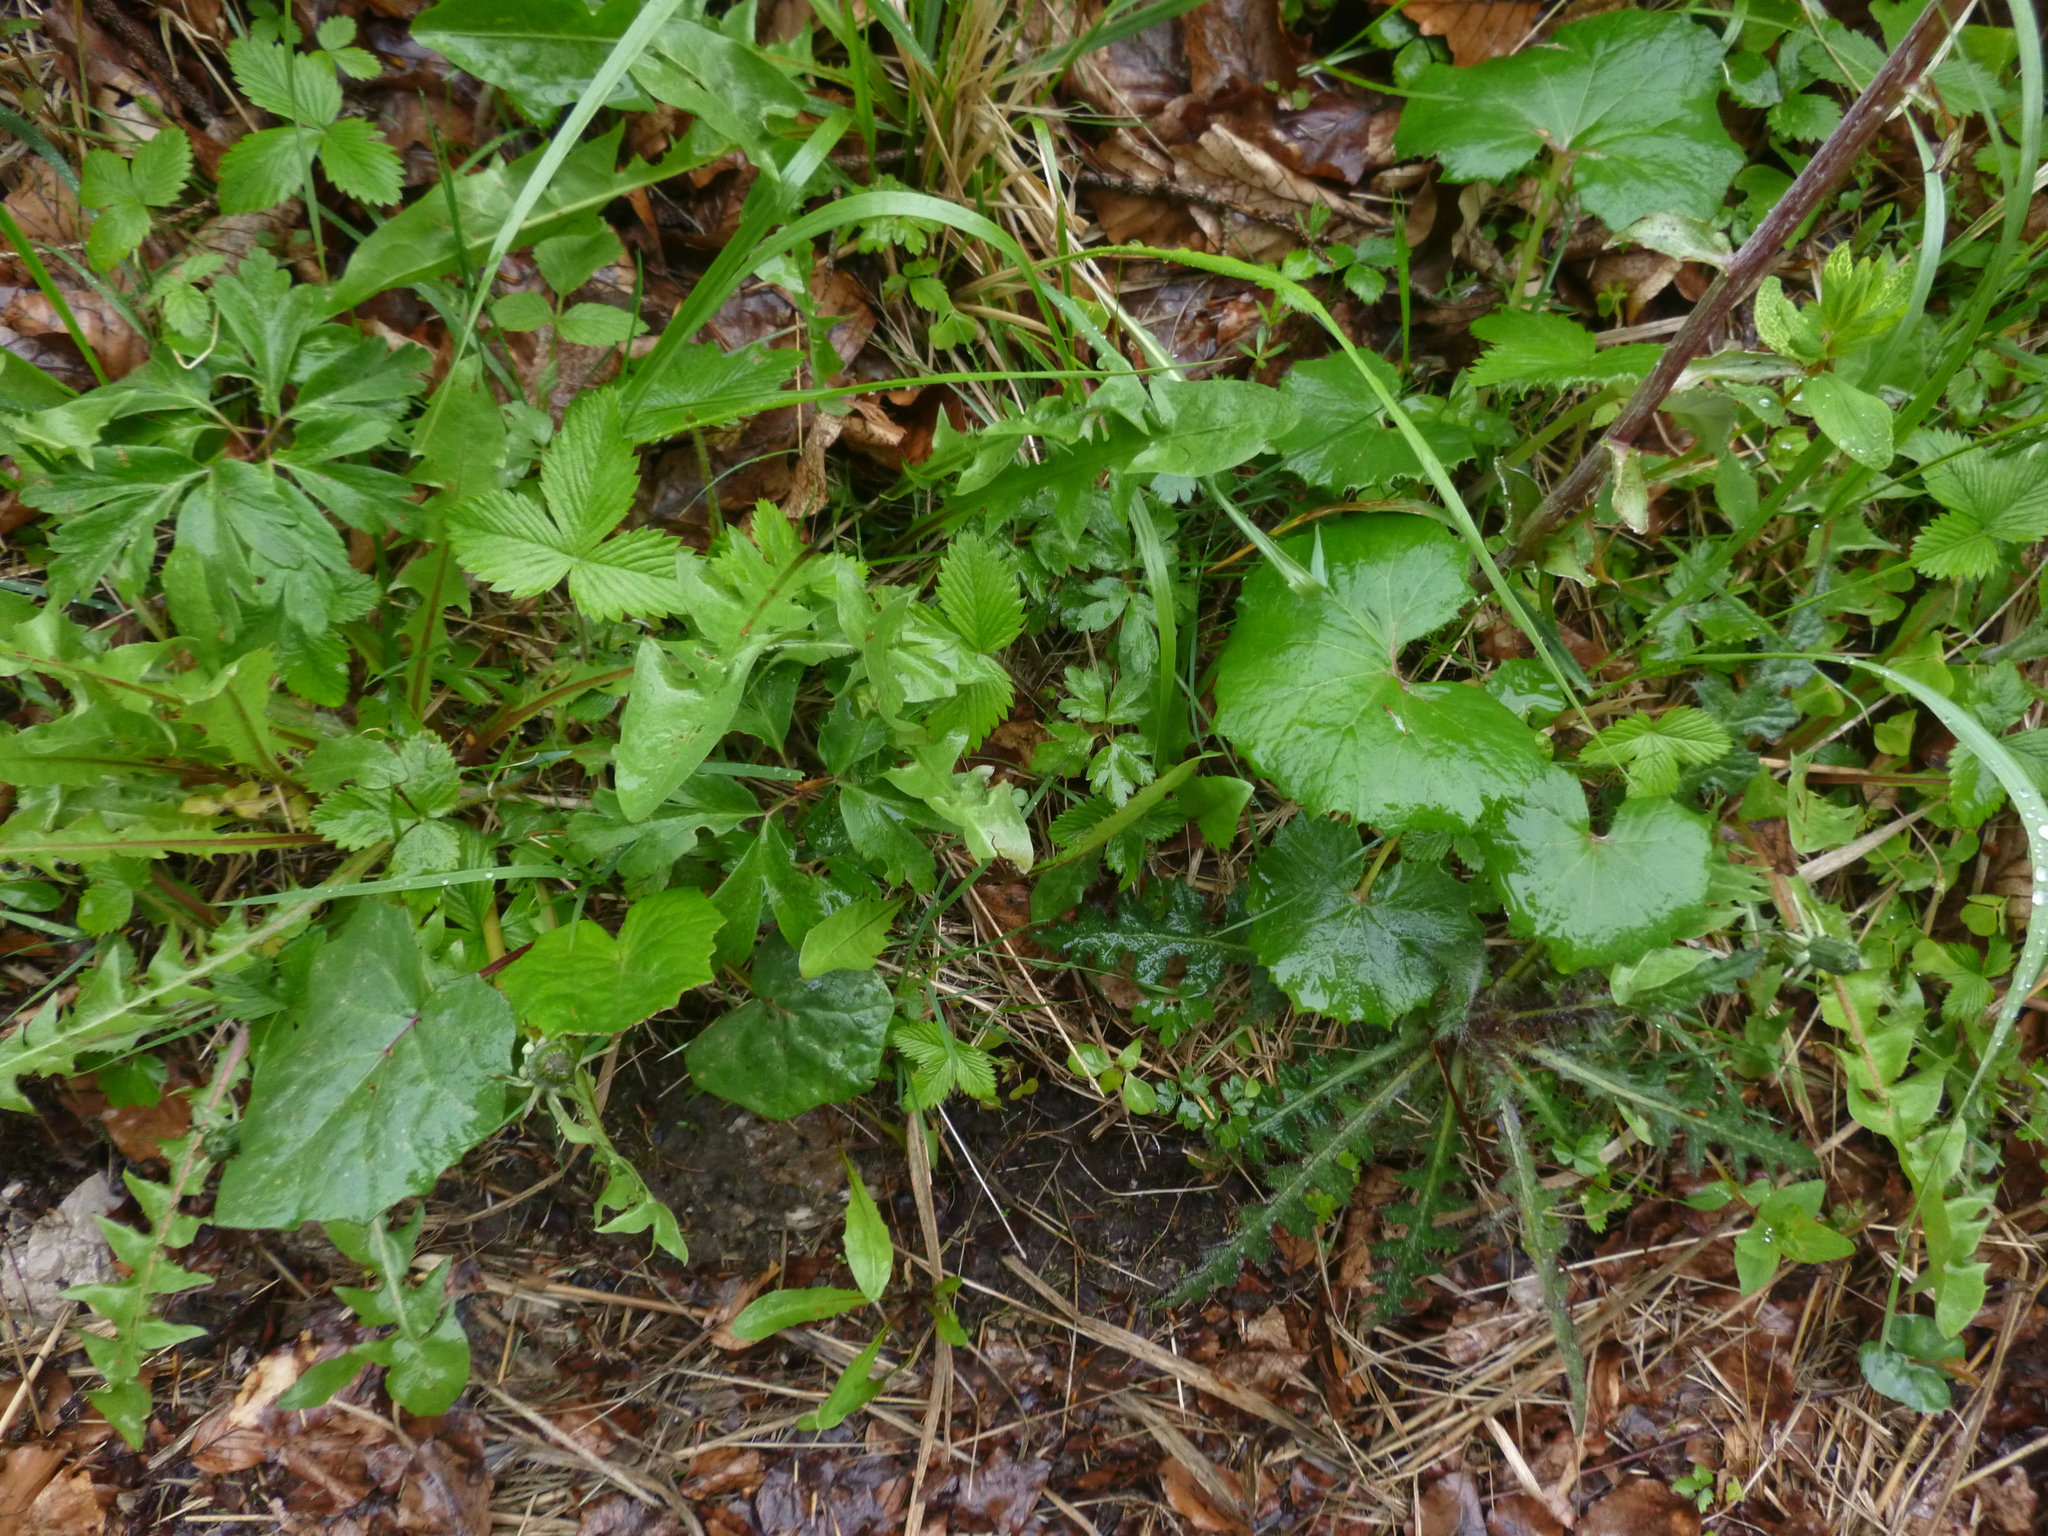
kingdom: Plantae
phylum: Tracheophyta
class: Magnoliopsida
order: Asterales
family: Asteraceae
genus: Petasites
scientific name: Petasites albus
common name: White butterbur
